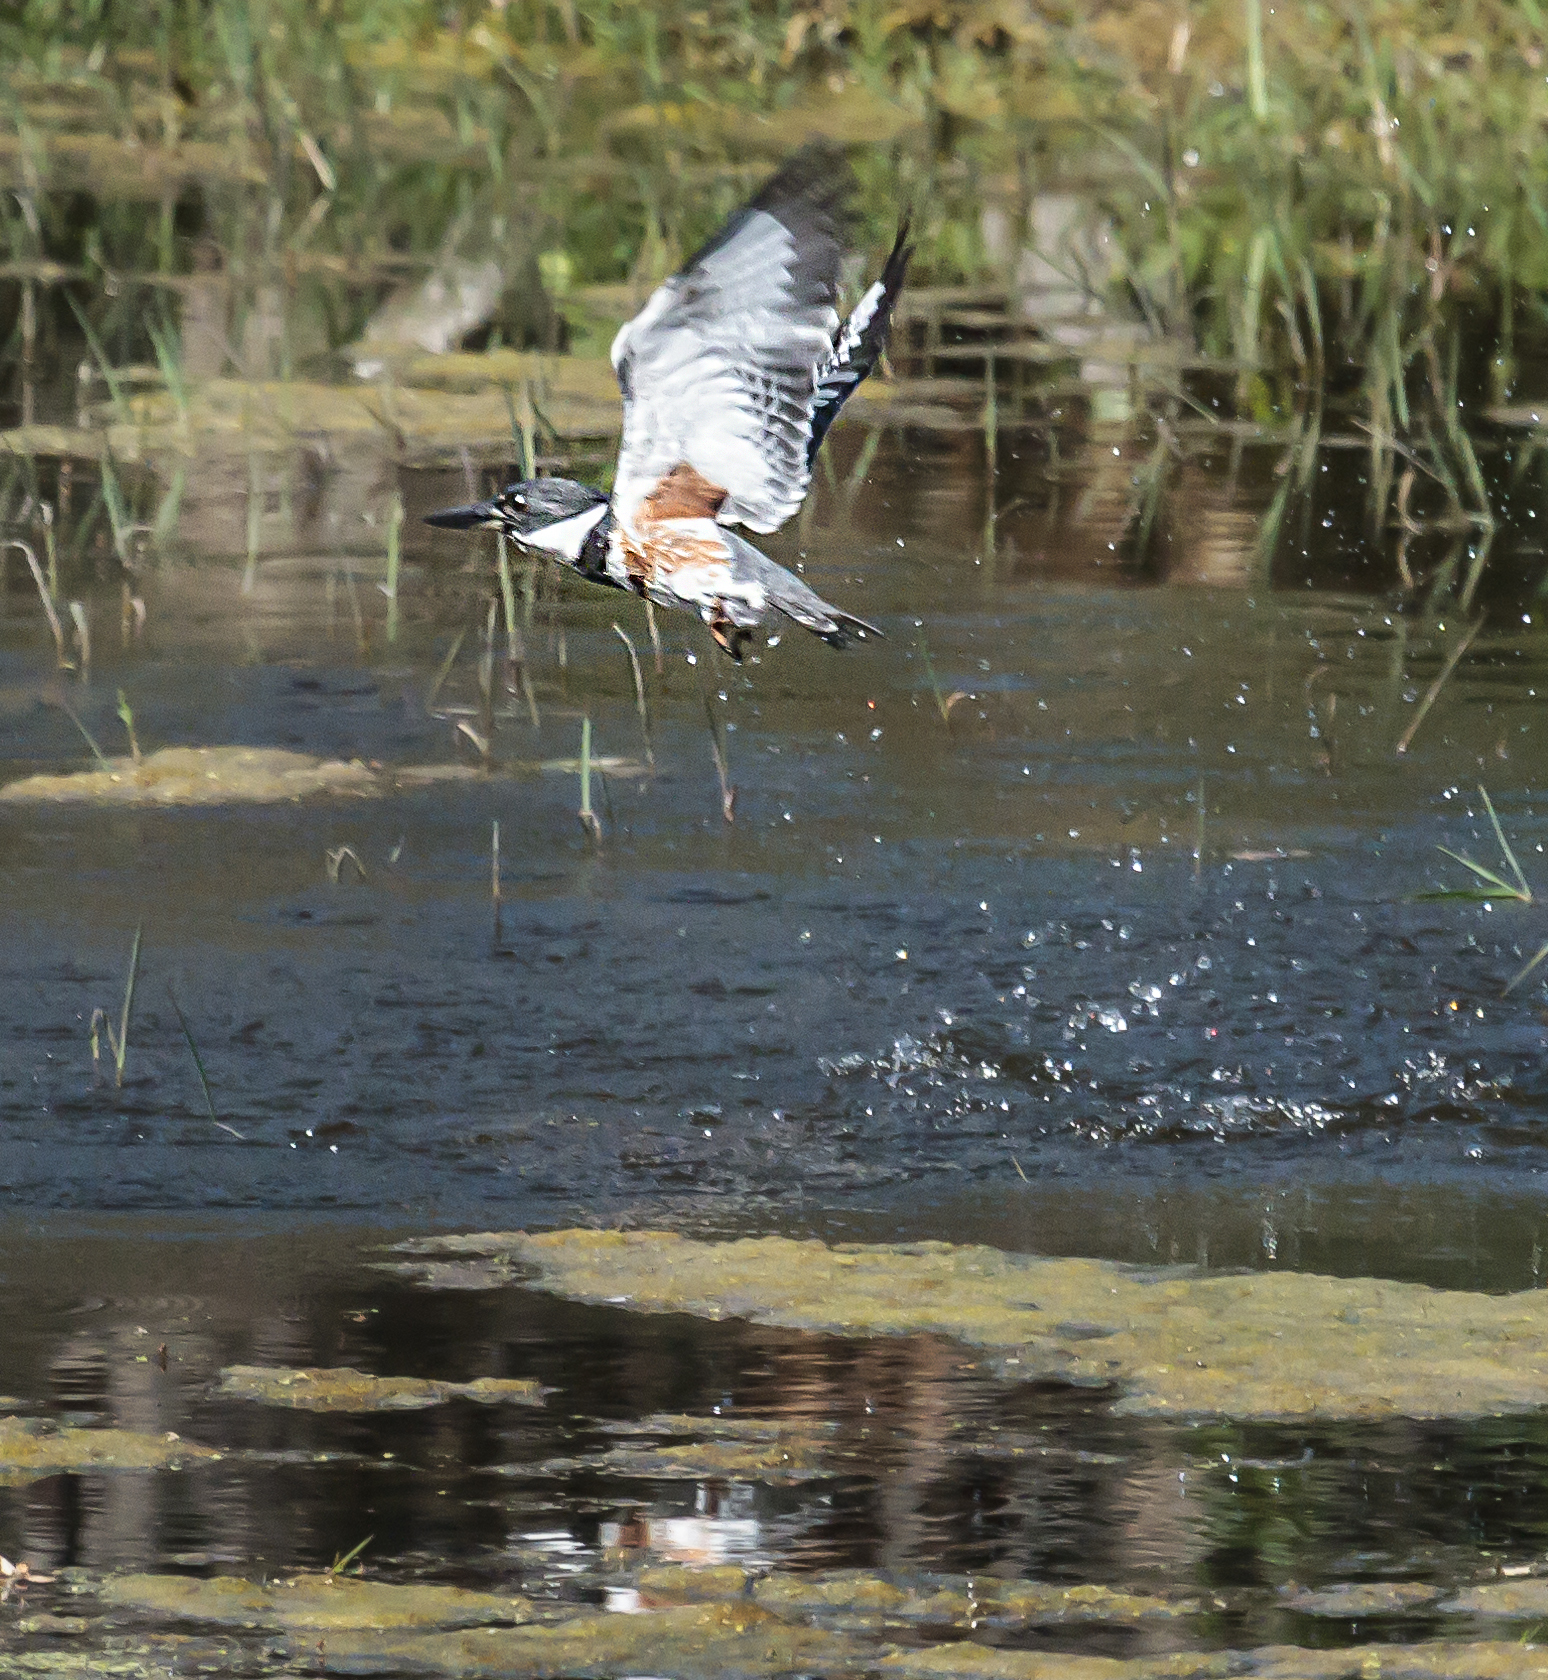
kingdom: Animalia
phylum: Chordata
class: Aves
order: Coraciiformes
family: Alcedinidae
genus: Megaceryle
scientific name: Megaceryle alcyon
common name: Belted kingfisher
